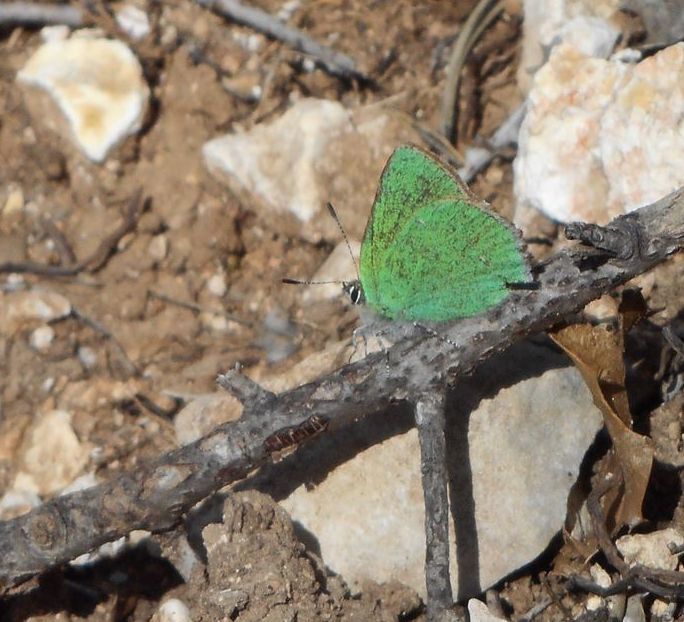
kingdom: Animalia
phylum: Arthropoda
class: Insecta
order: Lepidoptera
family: Lycaenidae
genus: Callophrys
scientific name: Callophrys rubi
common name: Green hairstreak
